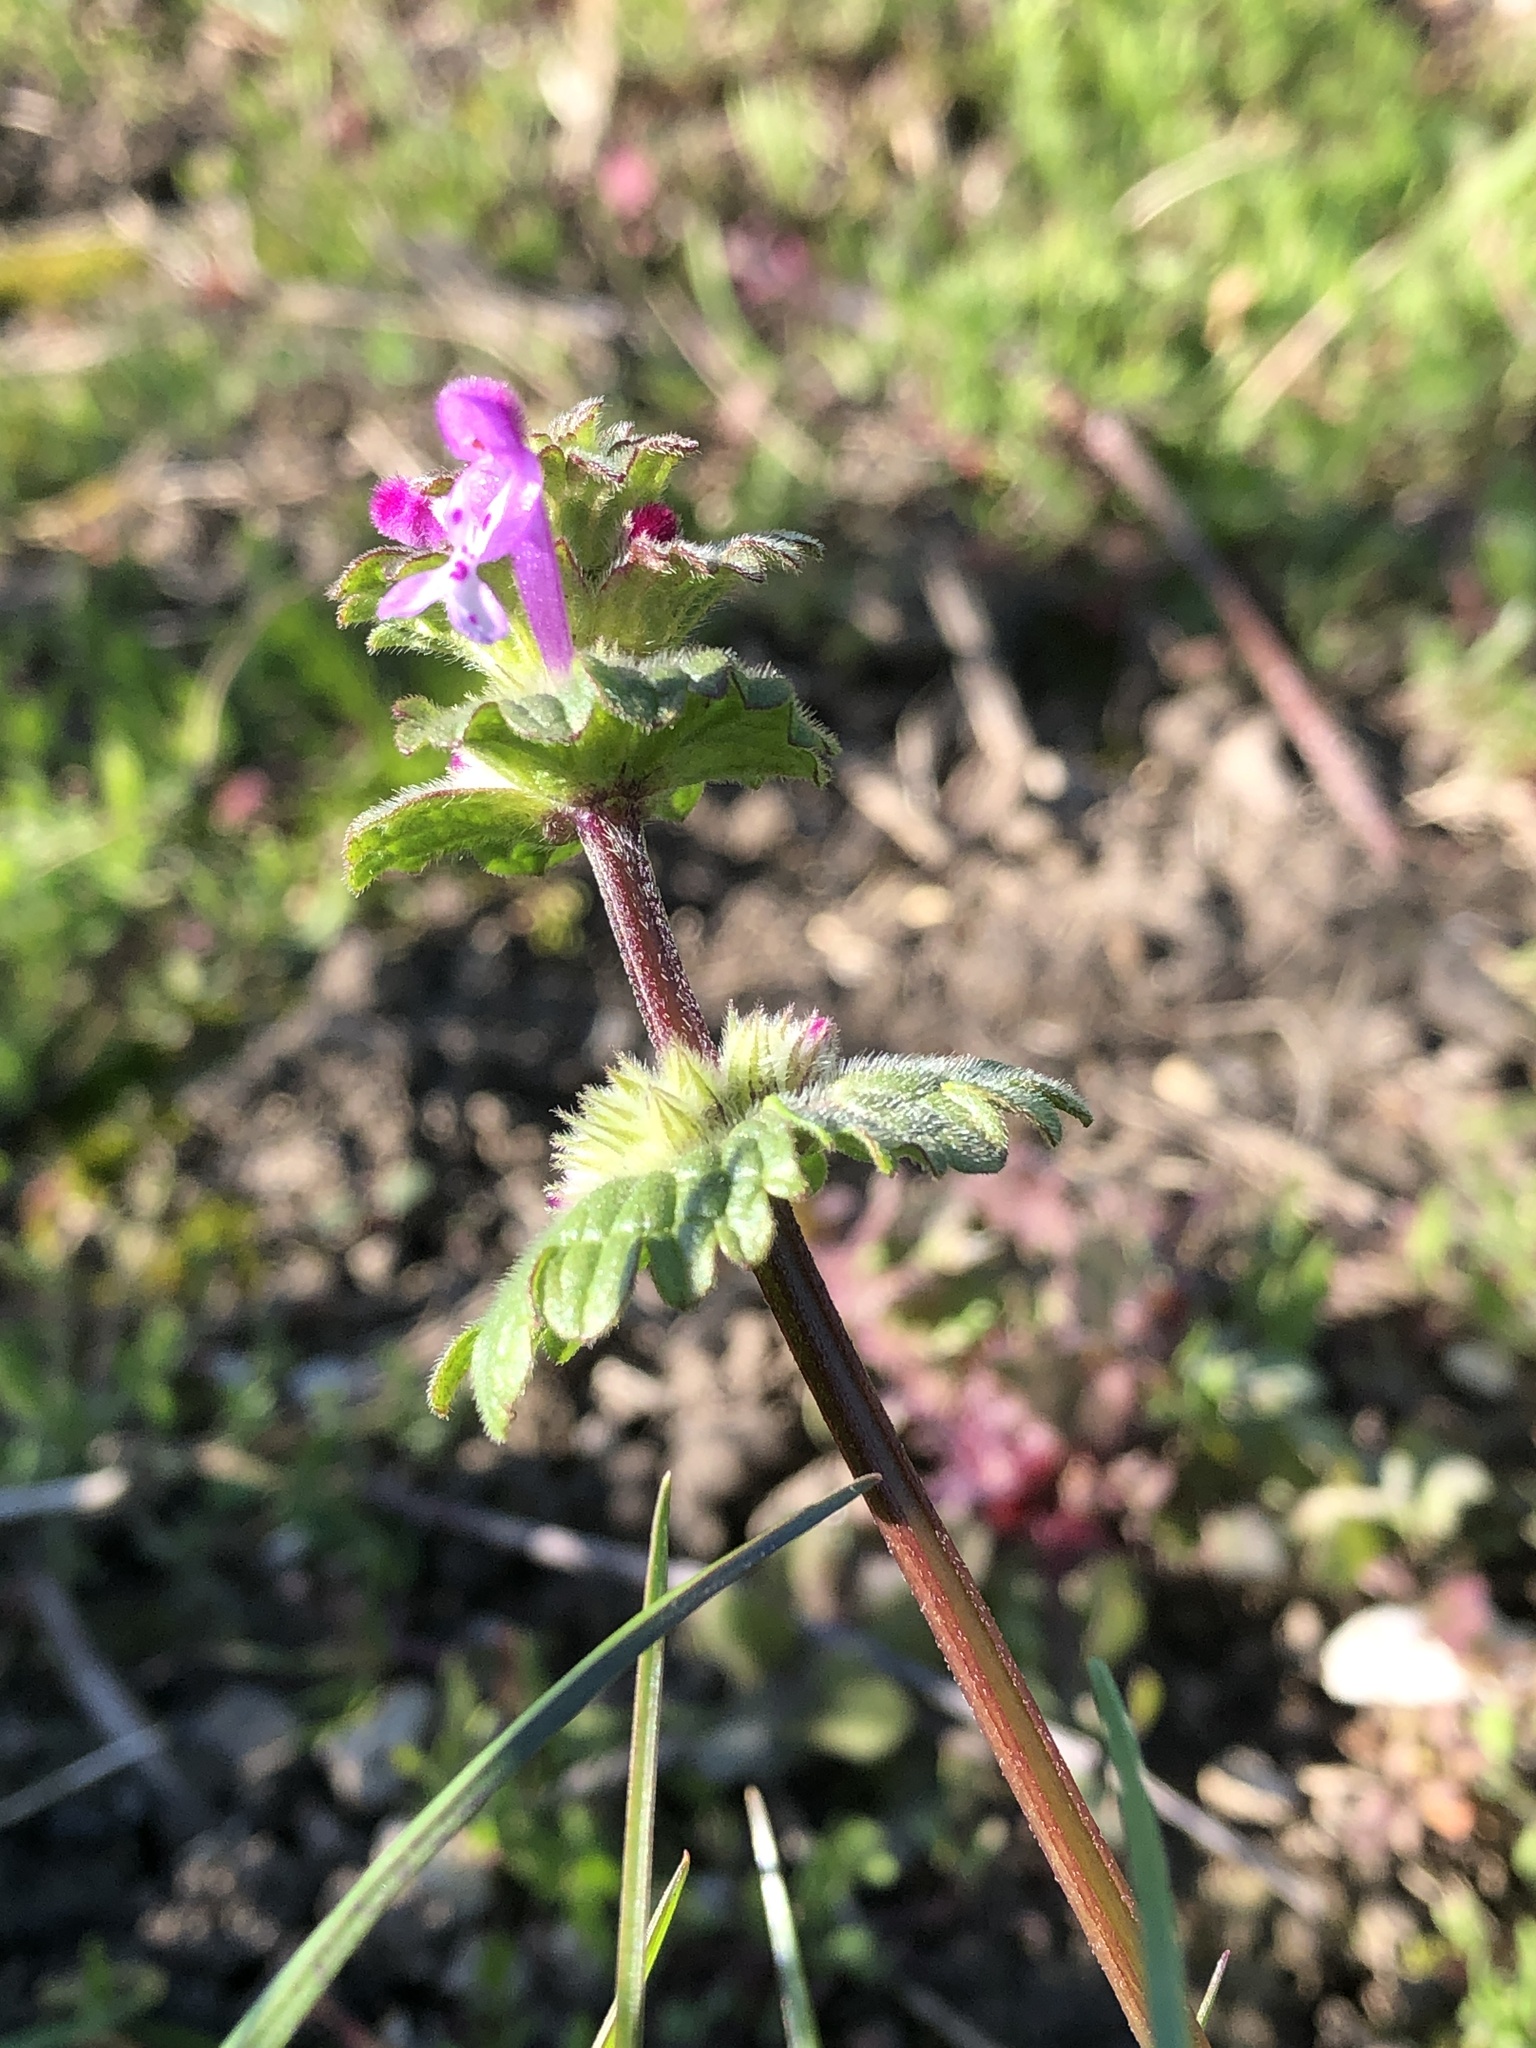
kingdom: Plantae
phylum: Tracheophyta
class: Magnoliopsida
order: Lamiales
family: Lamiaceae
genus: Lamium
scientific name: Lamium amplexicaule
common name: Henbit dead-nettle
